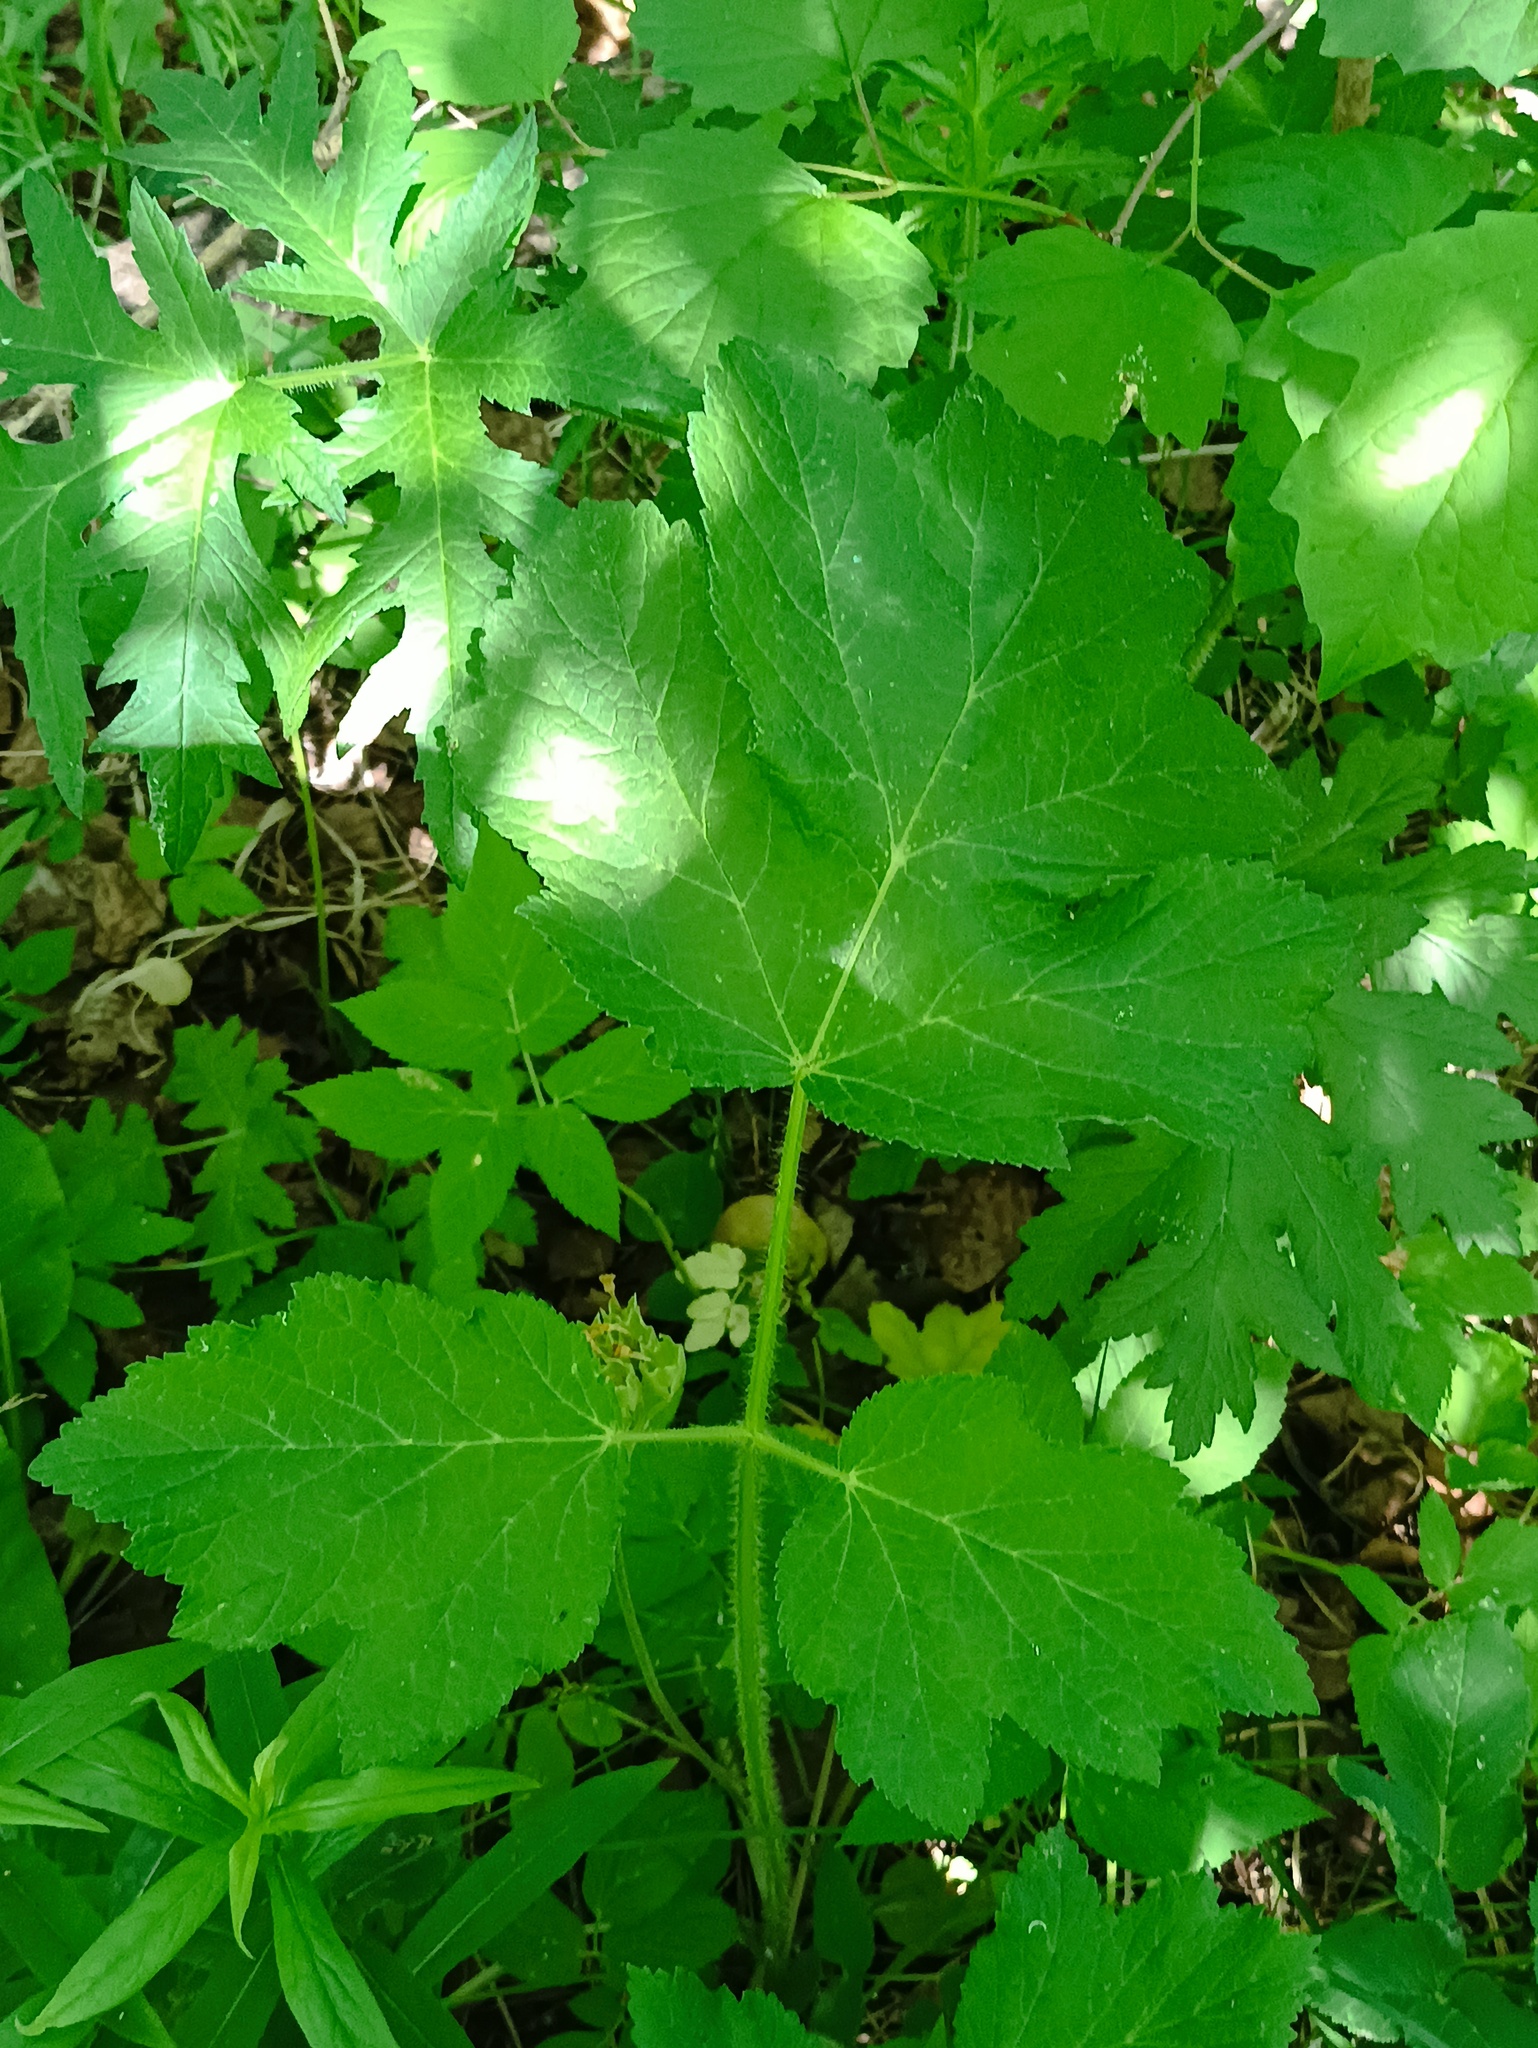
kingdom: Plantae
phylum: Tracheophyta
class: Magnoliopsida
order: Apiales
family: Apiaceae
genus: Heracleum
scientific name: Heracleum sphondylium
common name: Hogweed
